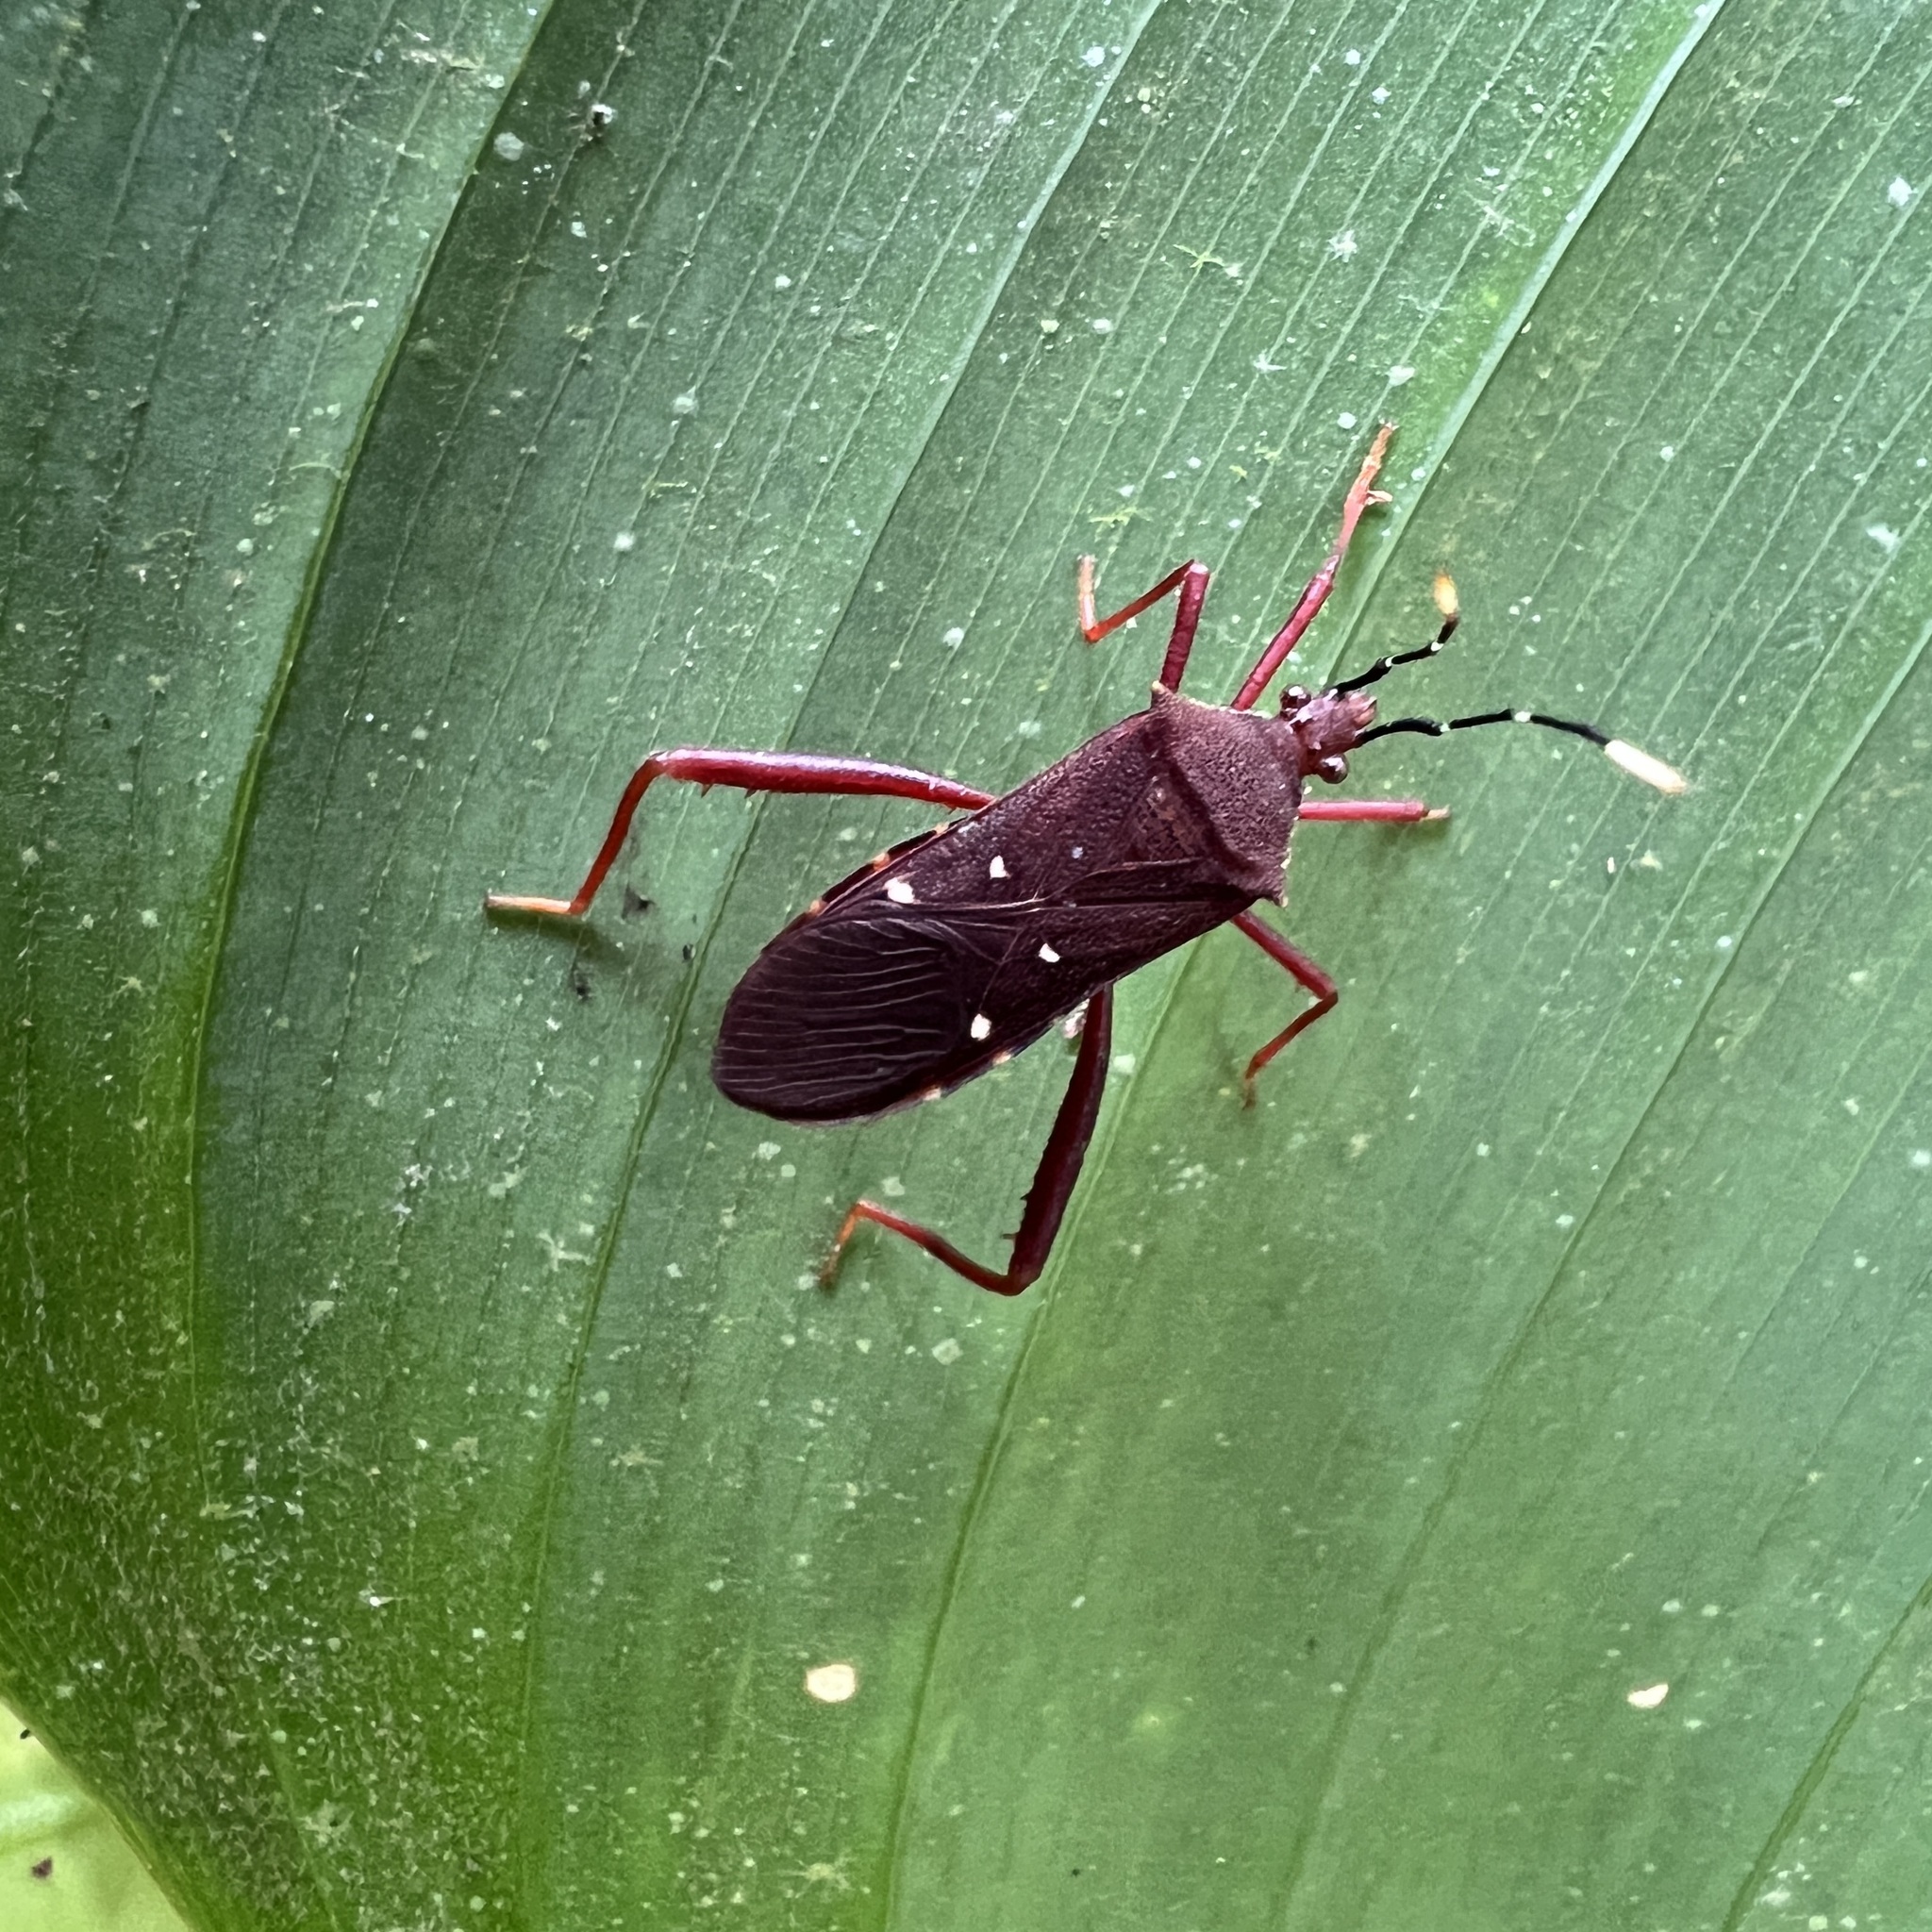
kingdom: Animalia
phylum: Arthropoda
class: Insecta
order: Hemiptera
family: Coreidae
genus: Leptoscelis
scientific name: Leptoscelis quadrisignatus
